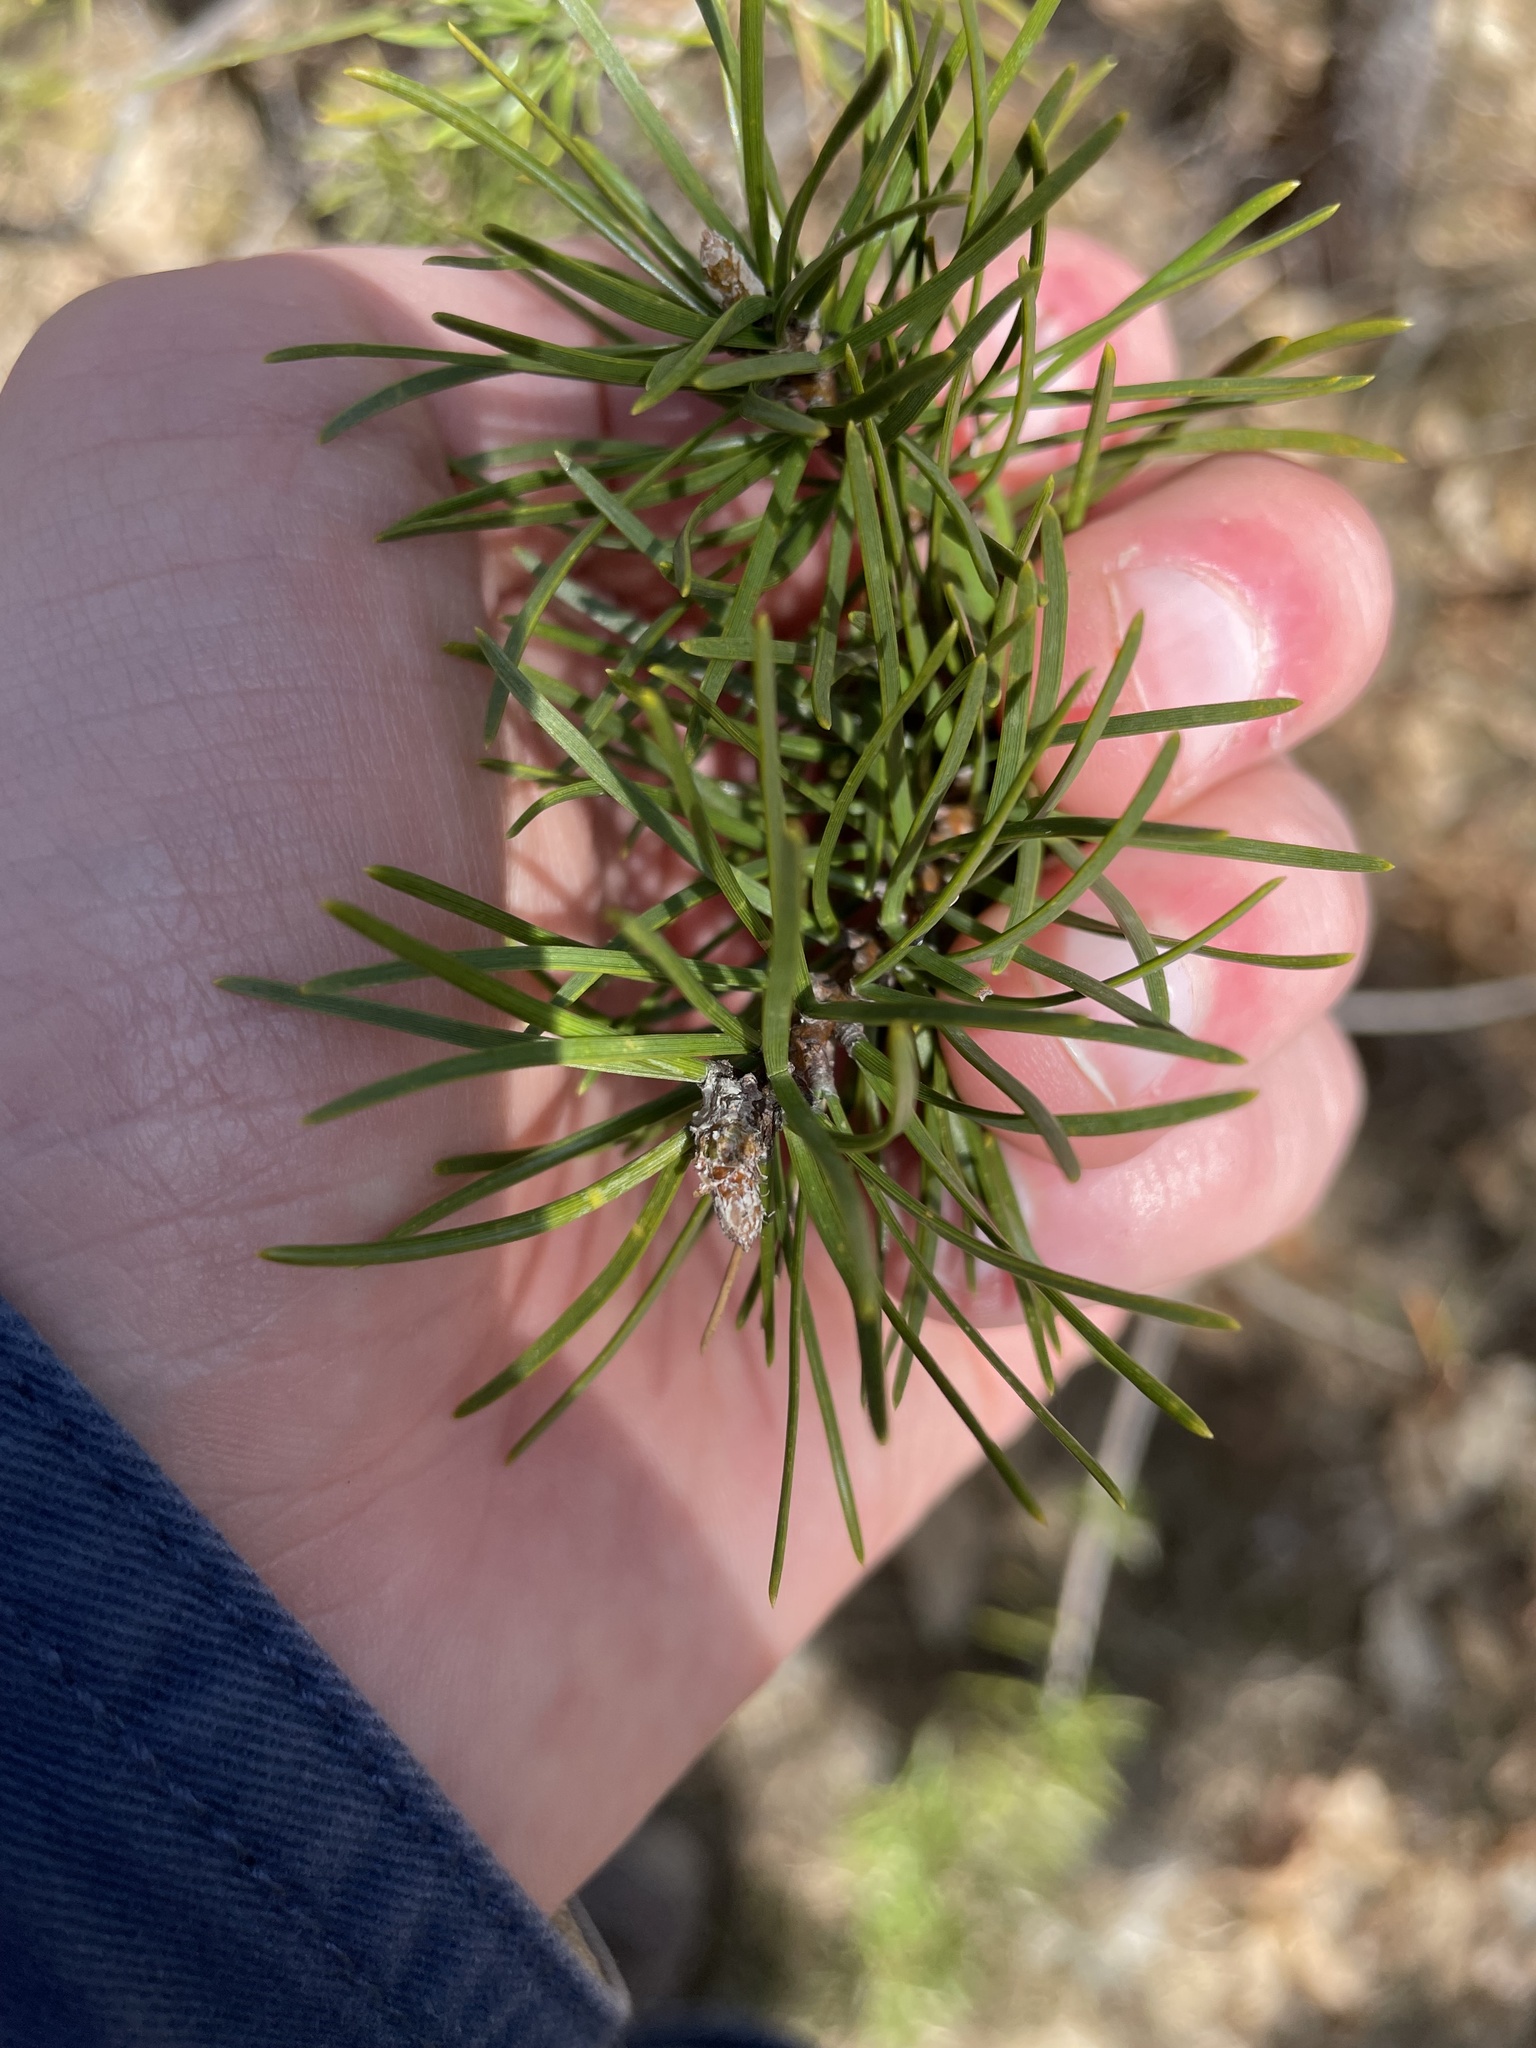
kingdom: Plantae
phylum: Tracheophyta
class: Pinopsida
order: Pinales
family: Pinaceae
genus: Pinus
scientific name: Pinus banksiana
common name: Jack pine
